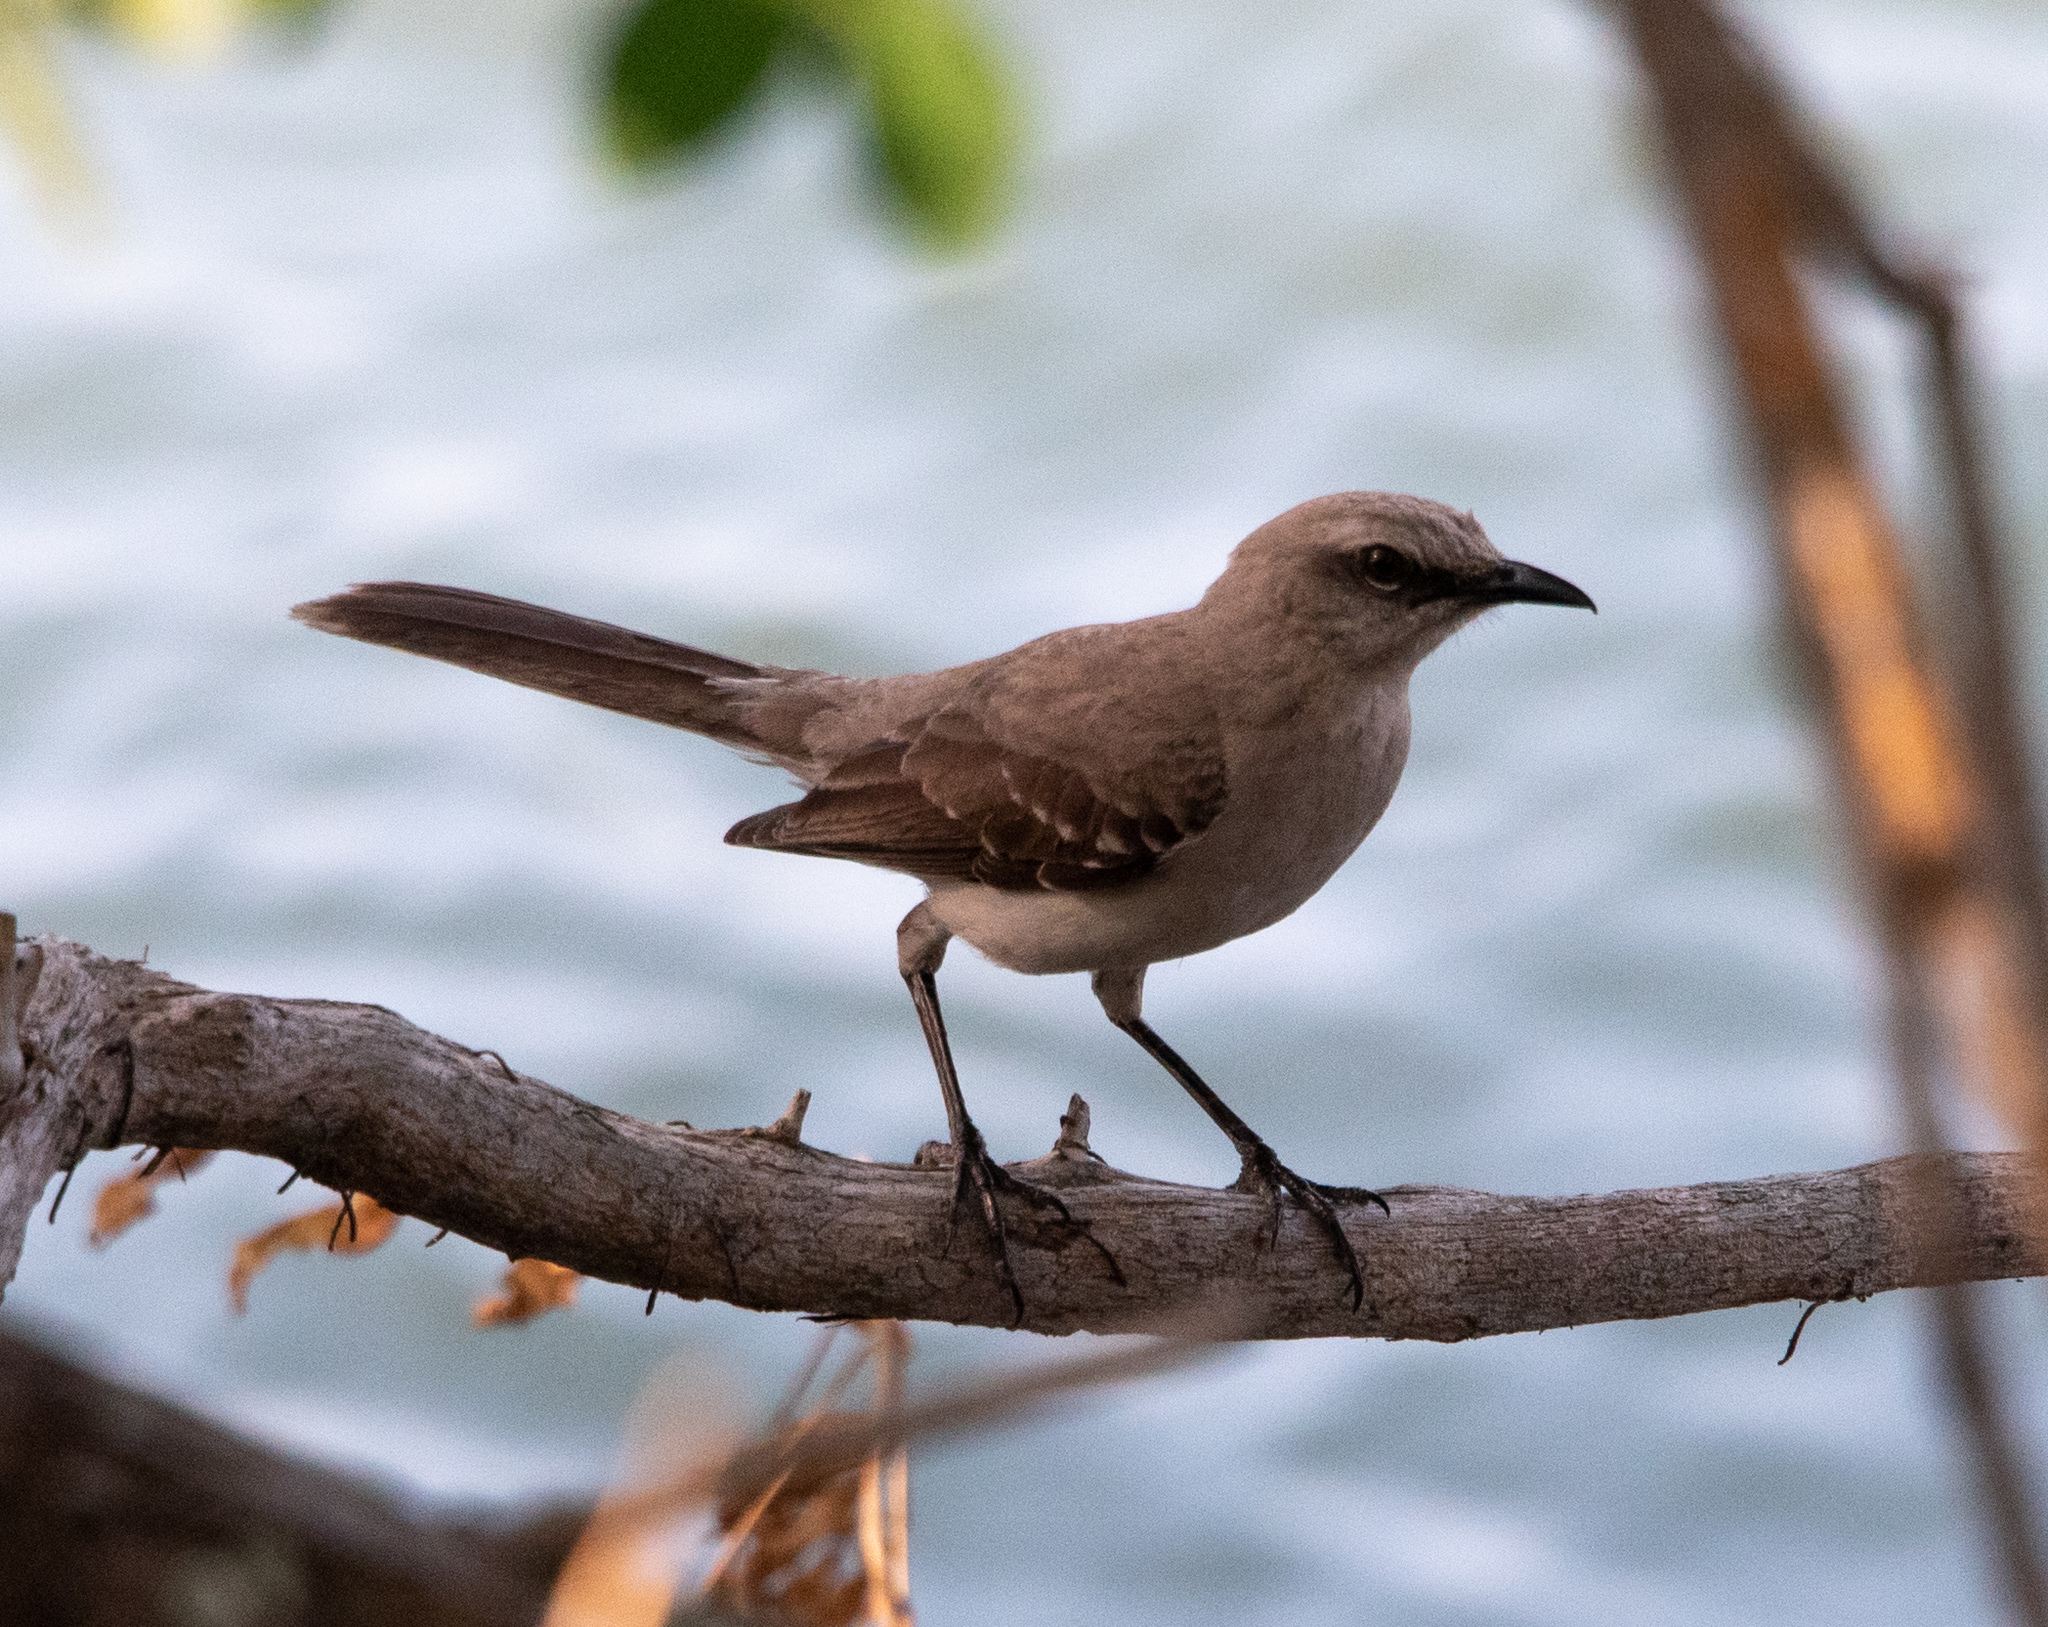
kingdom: Animalia
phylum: Chordata
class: Aves
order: Passeriformes
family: Mimidae
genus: Mimus
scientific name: Mimus gilvus
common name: Tropical mockingbird
